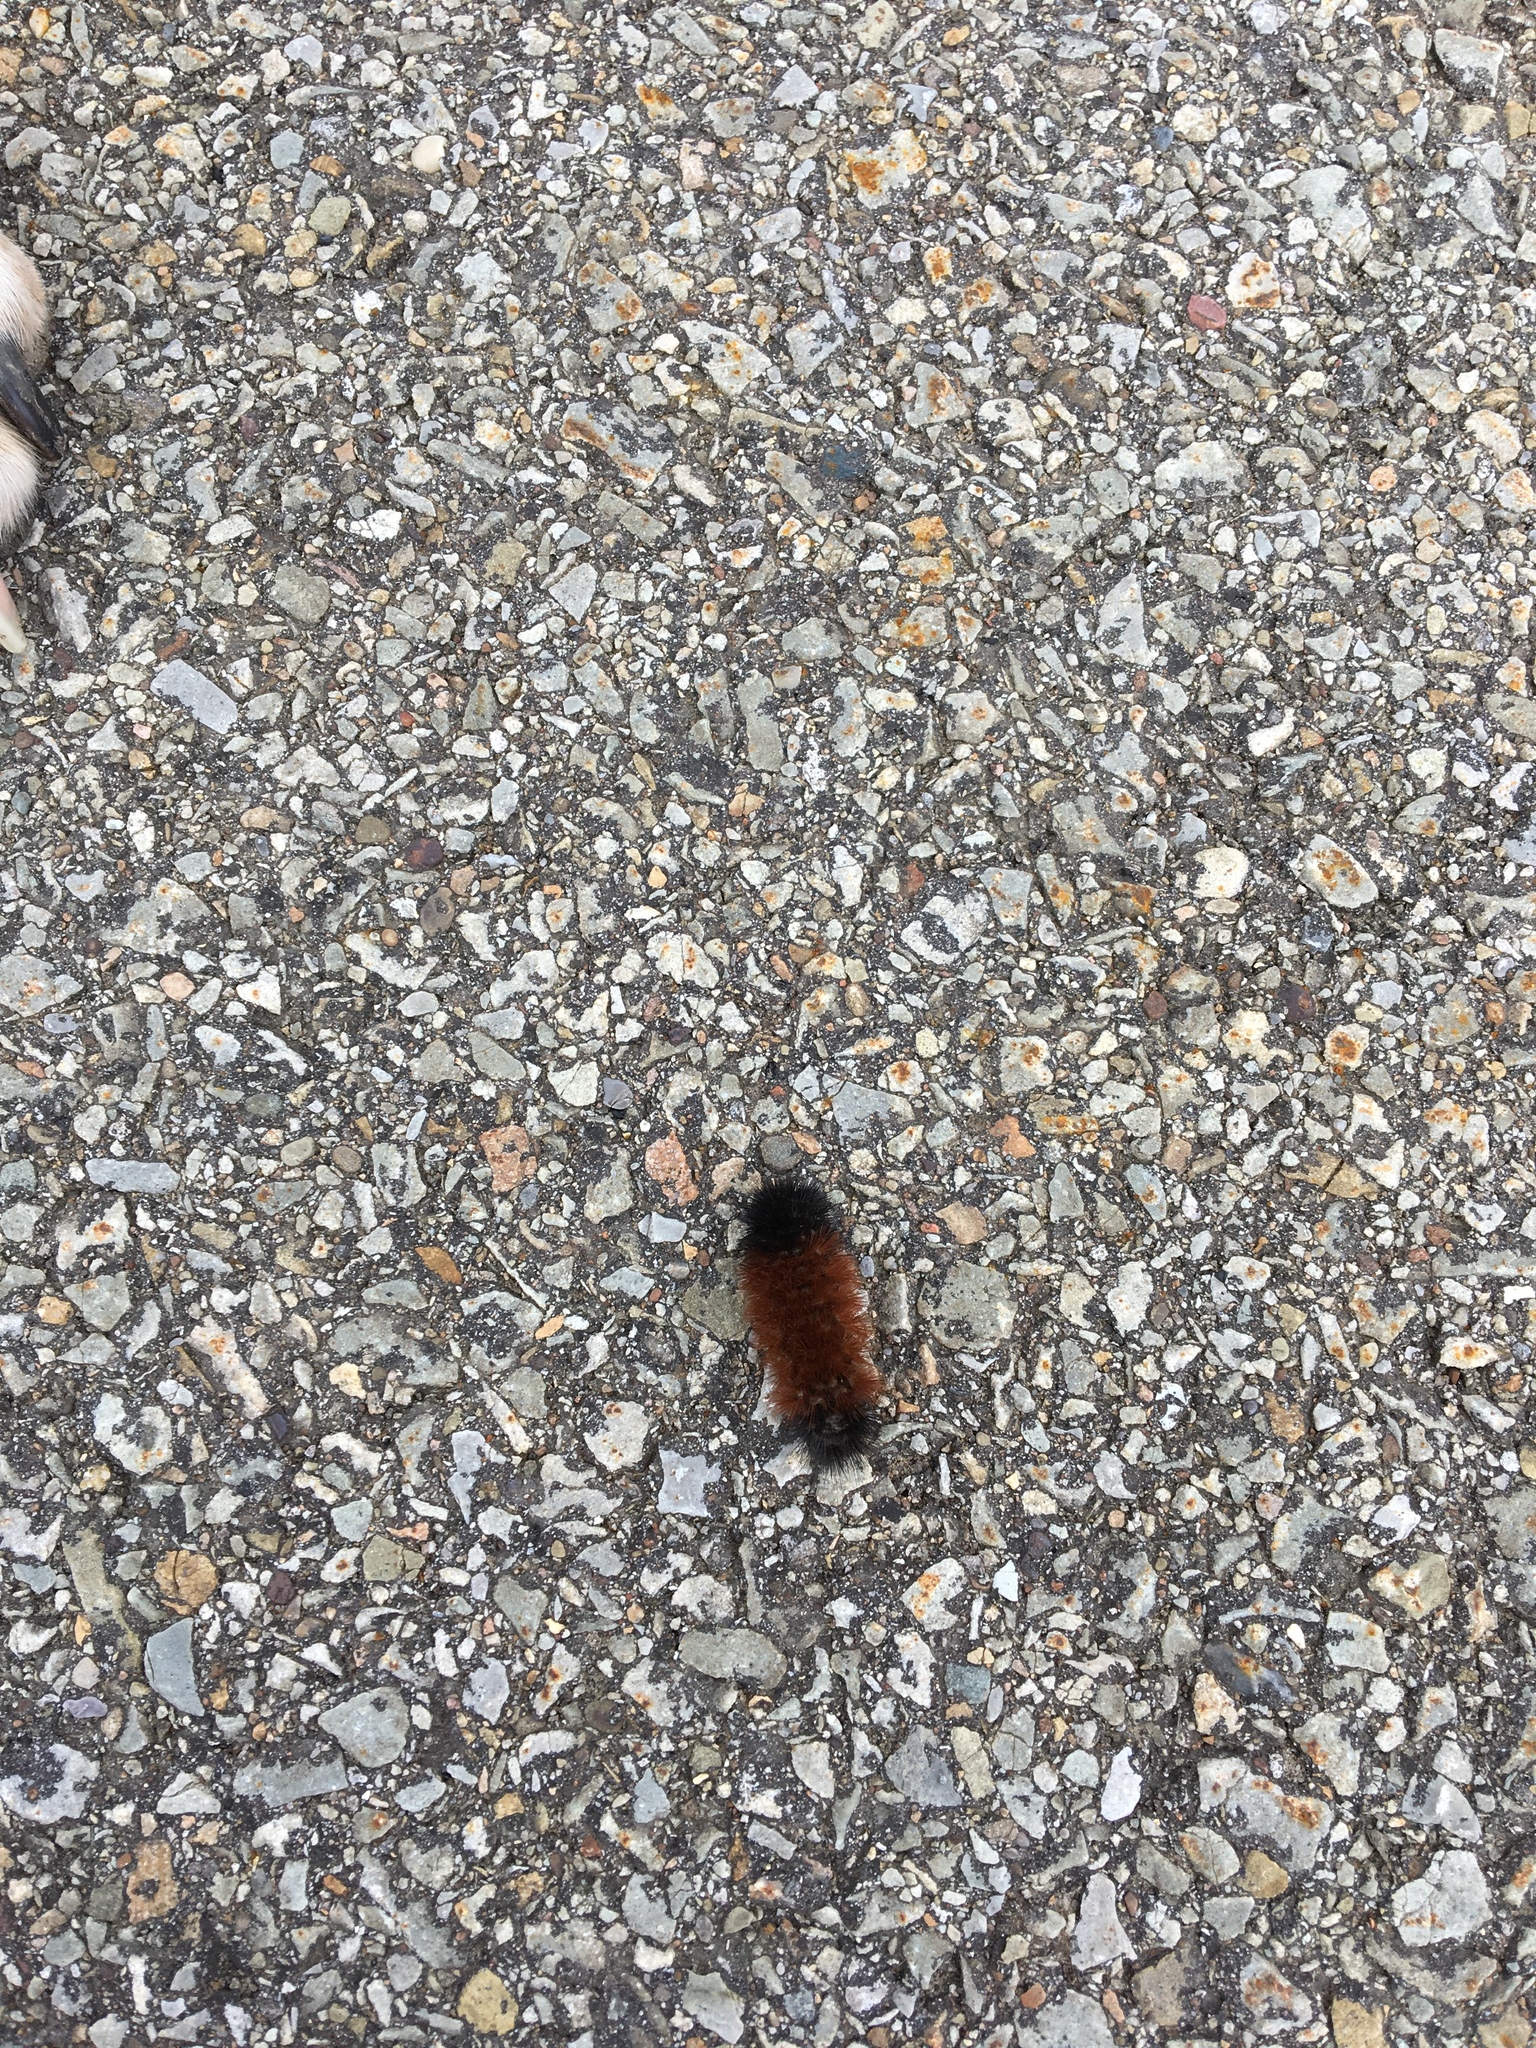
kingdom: Animalia
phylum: Arthropoda
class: Insecta
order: Lepidoptera
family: Erebidae
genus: Pyrrharctia
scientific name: Pyrrharctia isabella
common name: Isabella tiger moth
